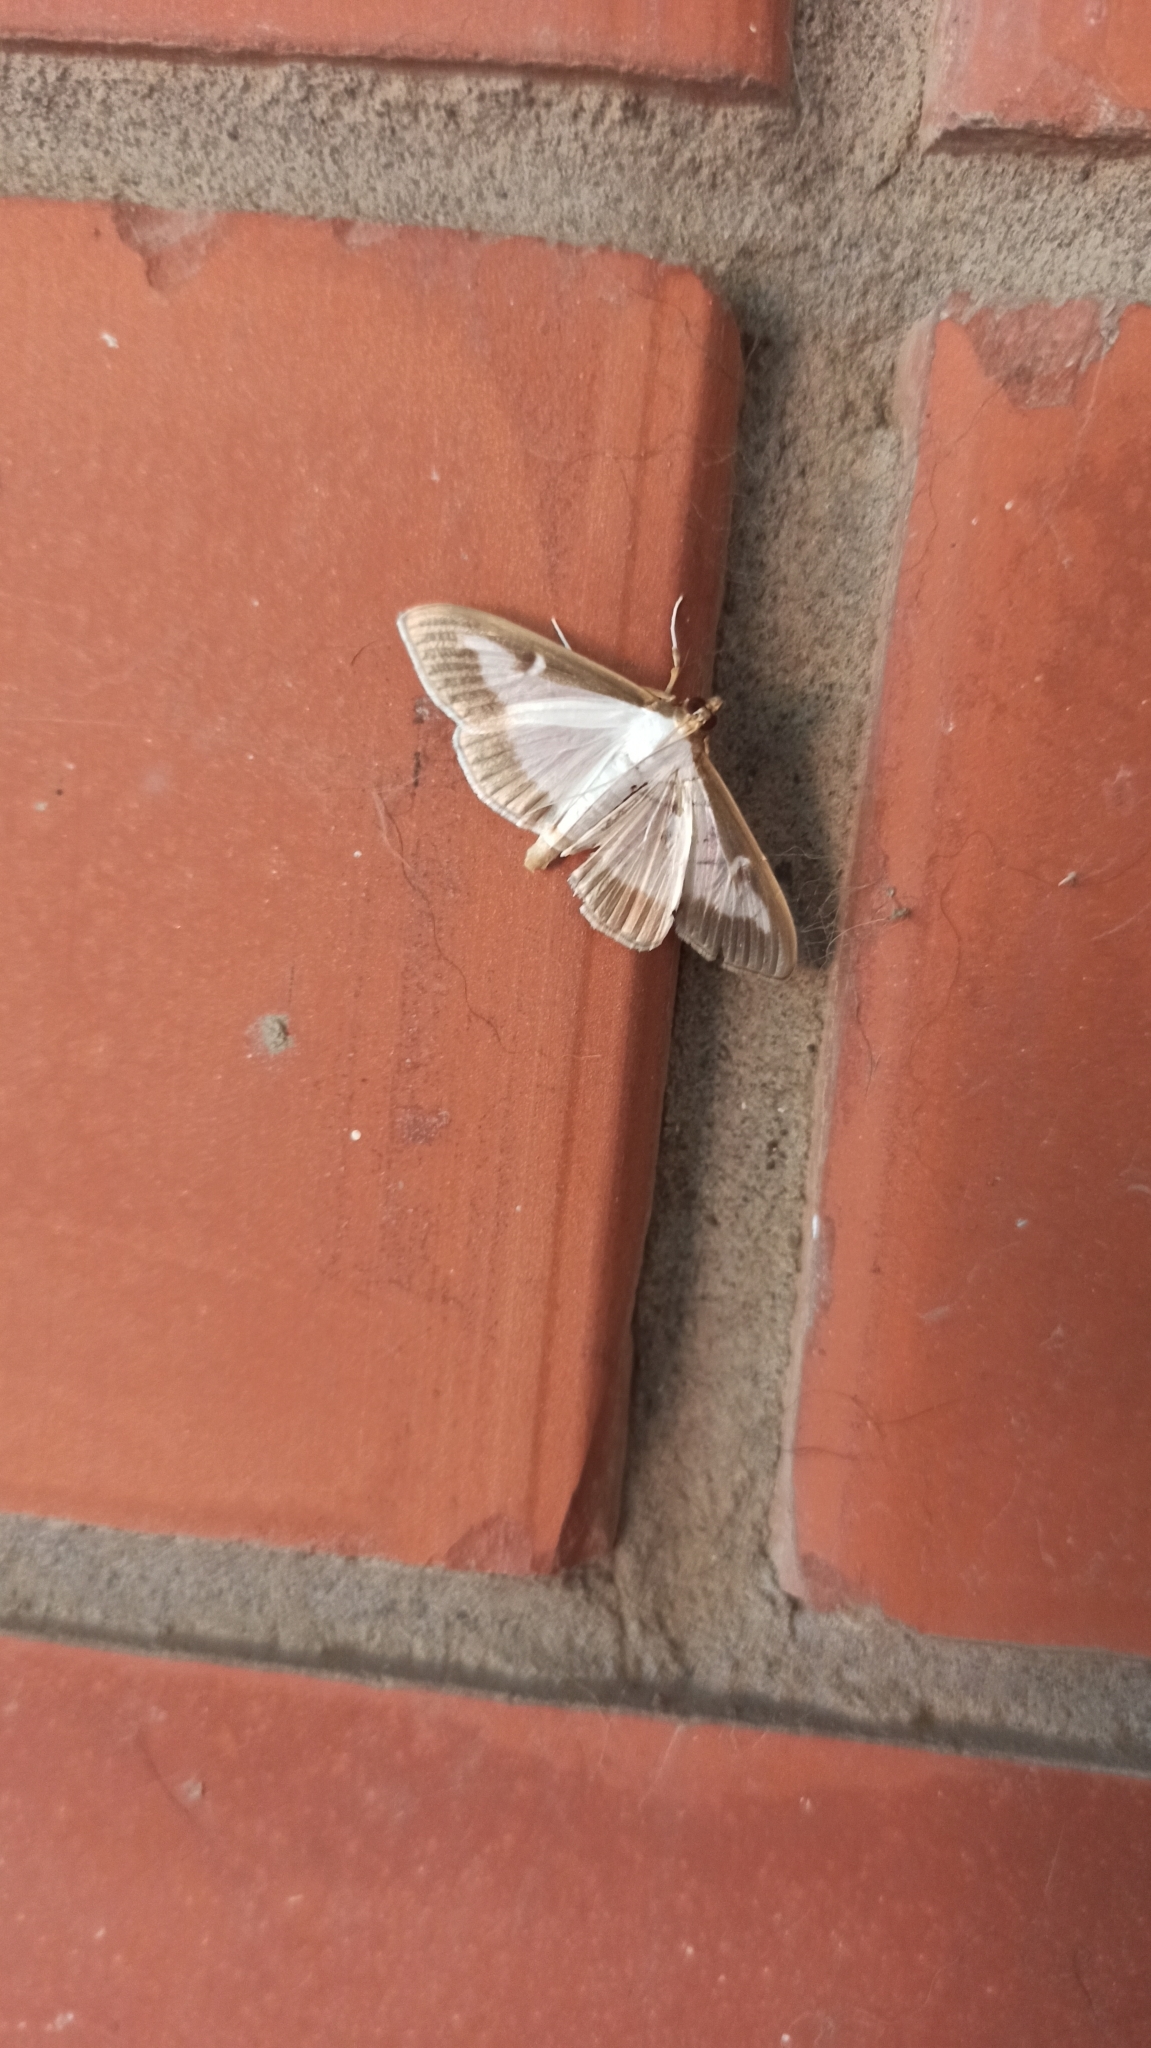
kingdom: Animalia
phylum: Arthropoda
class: Insecta
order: Lepidoptera
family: Crambidae
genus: Cydalima
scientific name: Cydalima perspectalis
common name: Box tree moth
